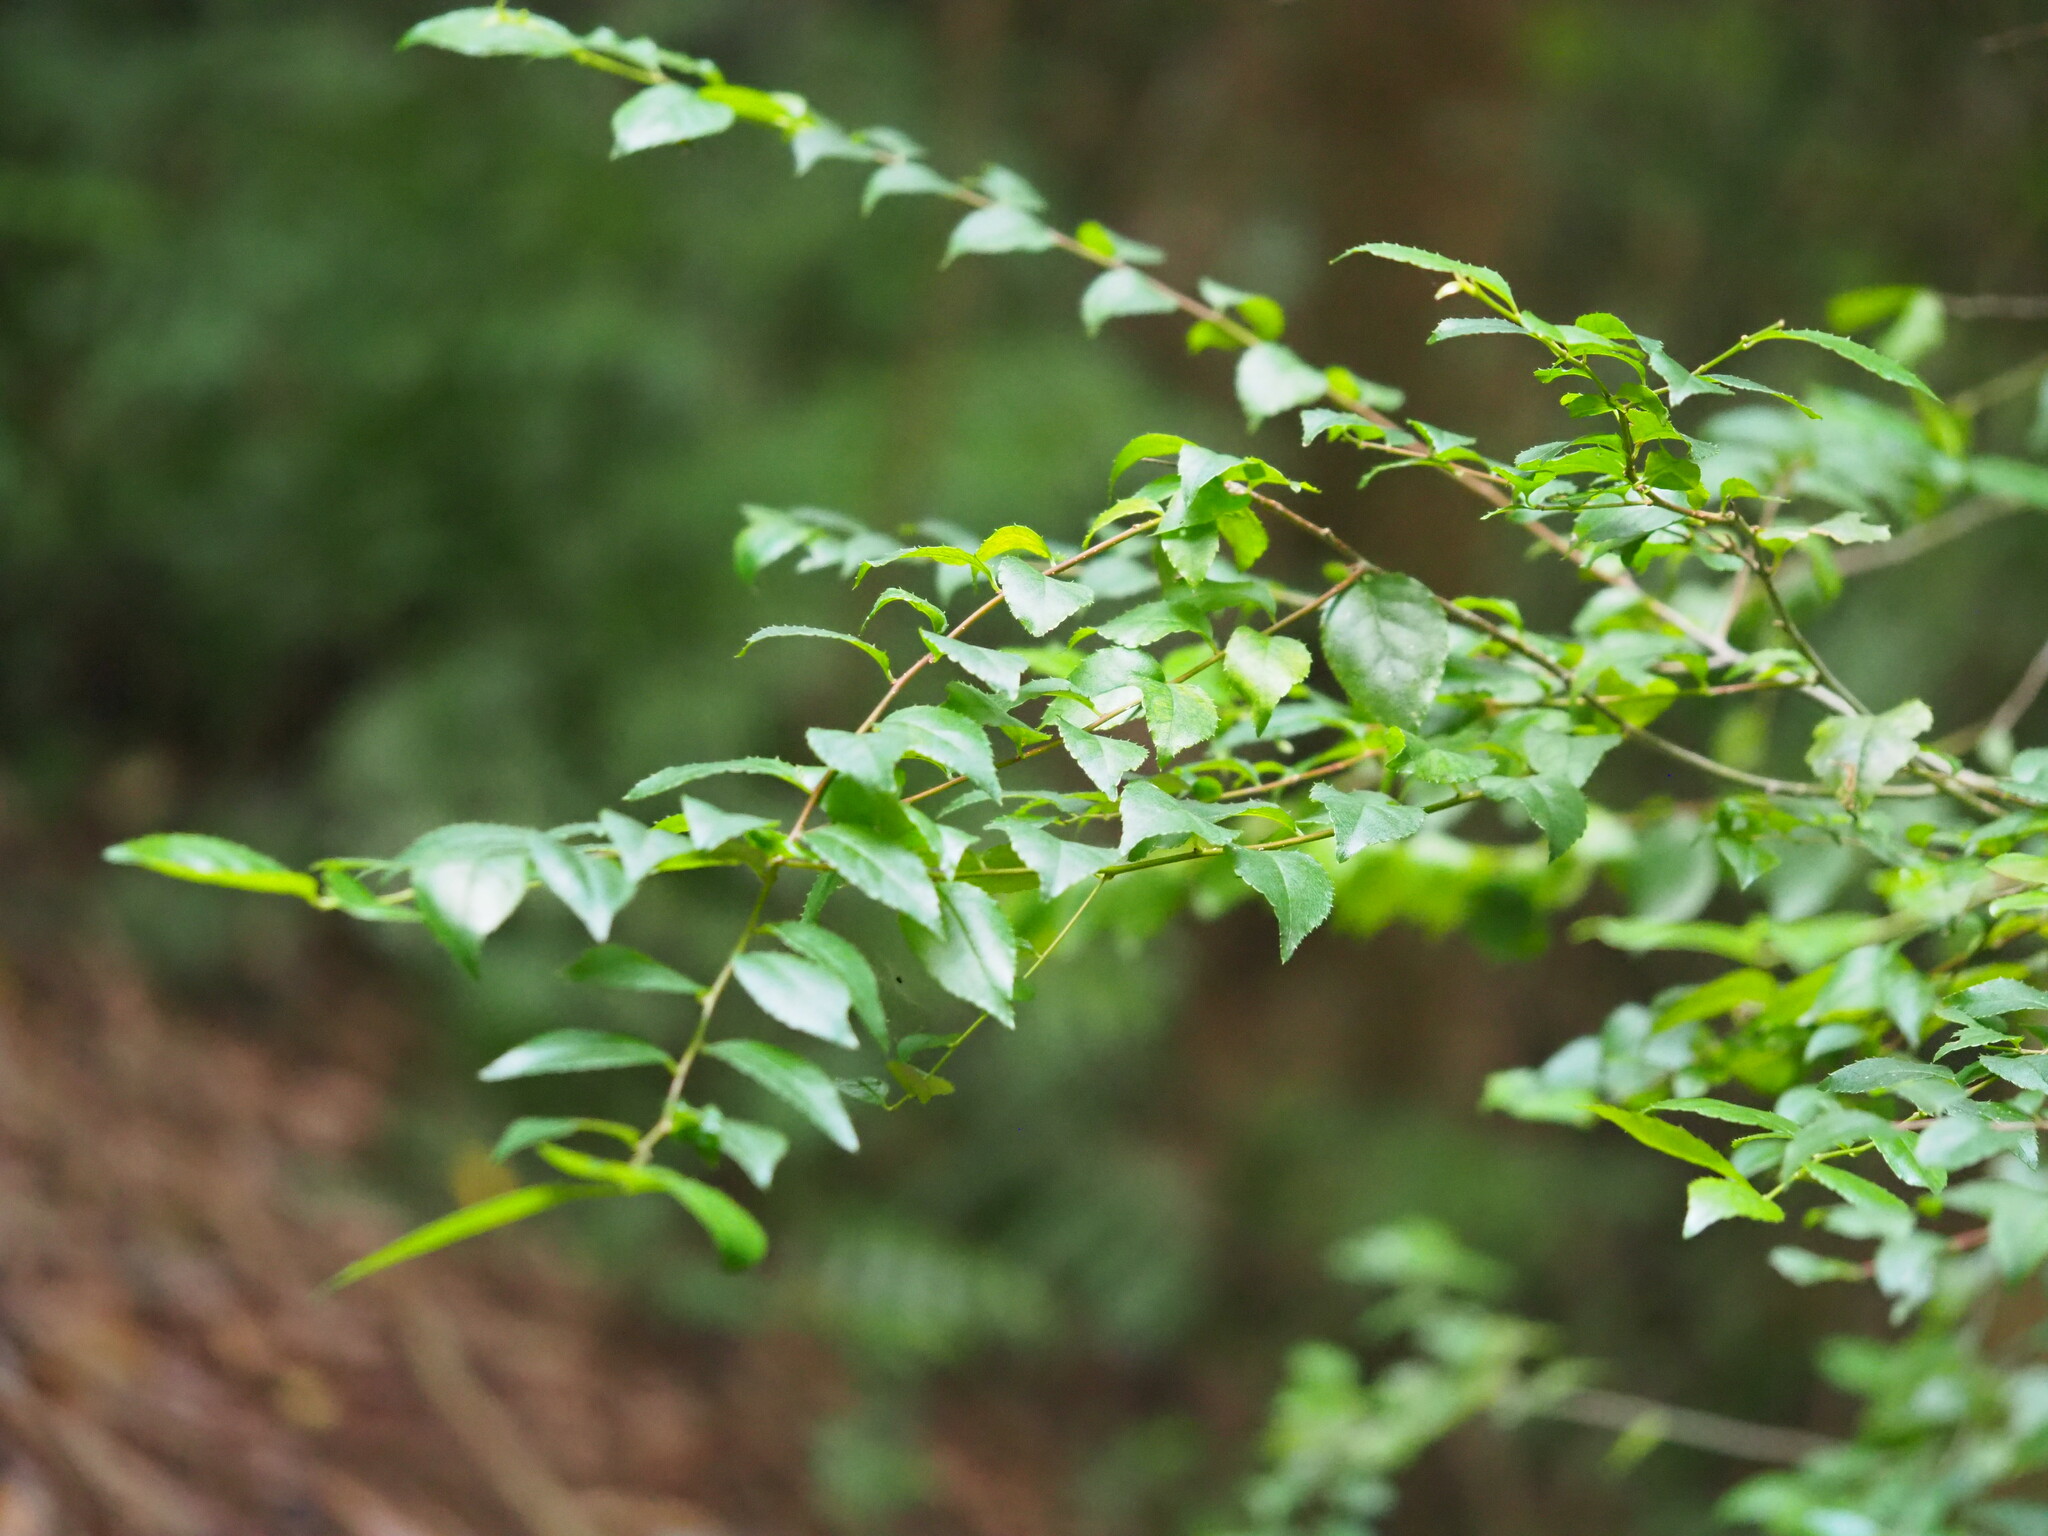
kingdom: Plantae
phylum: Tracheophyta
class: Magnoliopsida
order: Aquifoliales
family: Aquifoliaceae
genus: Ilex
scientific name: Ilex asprella
